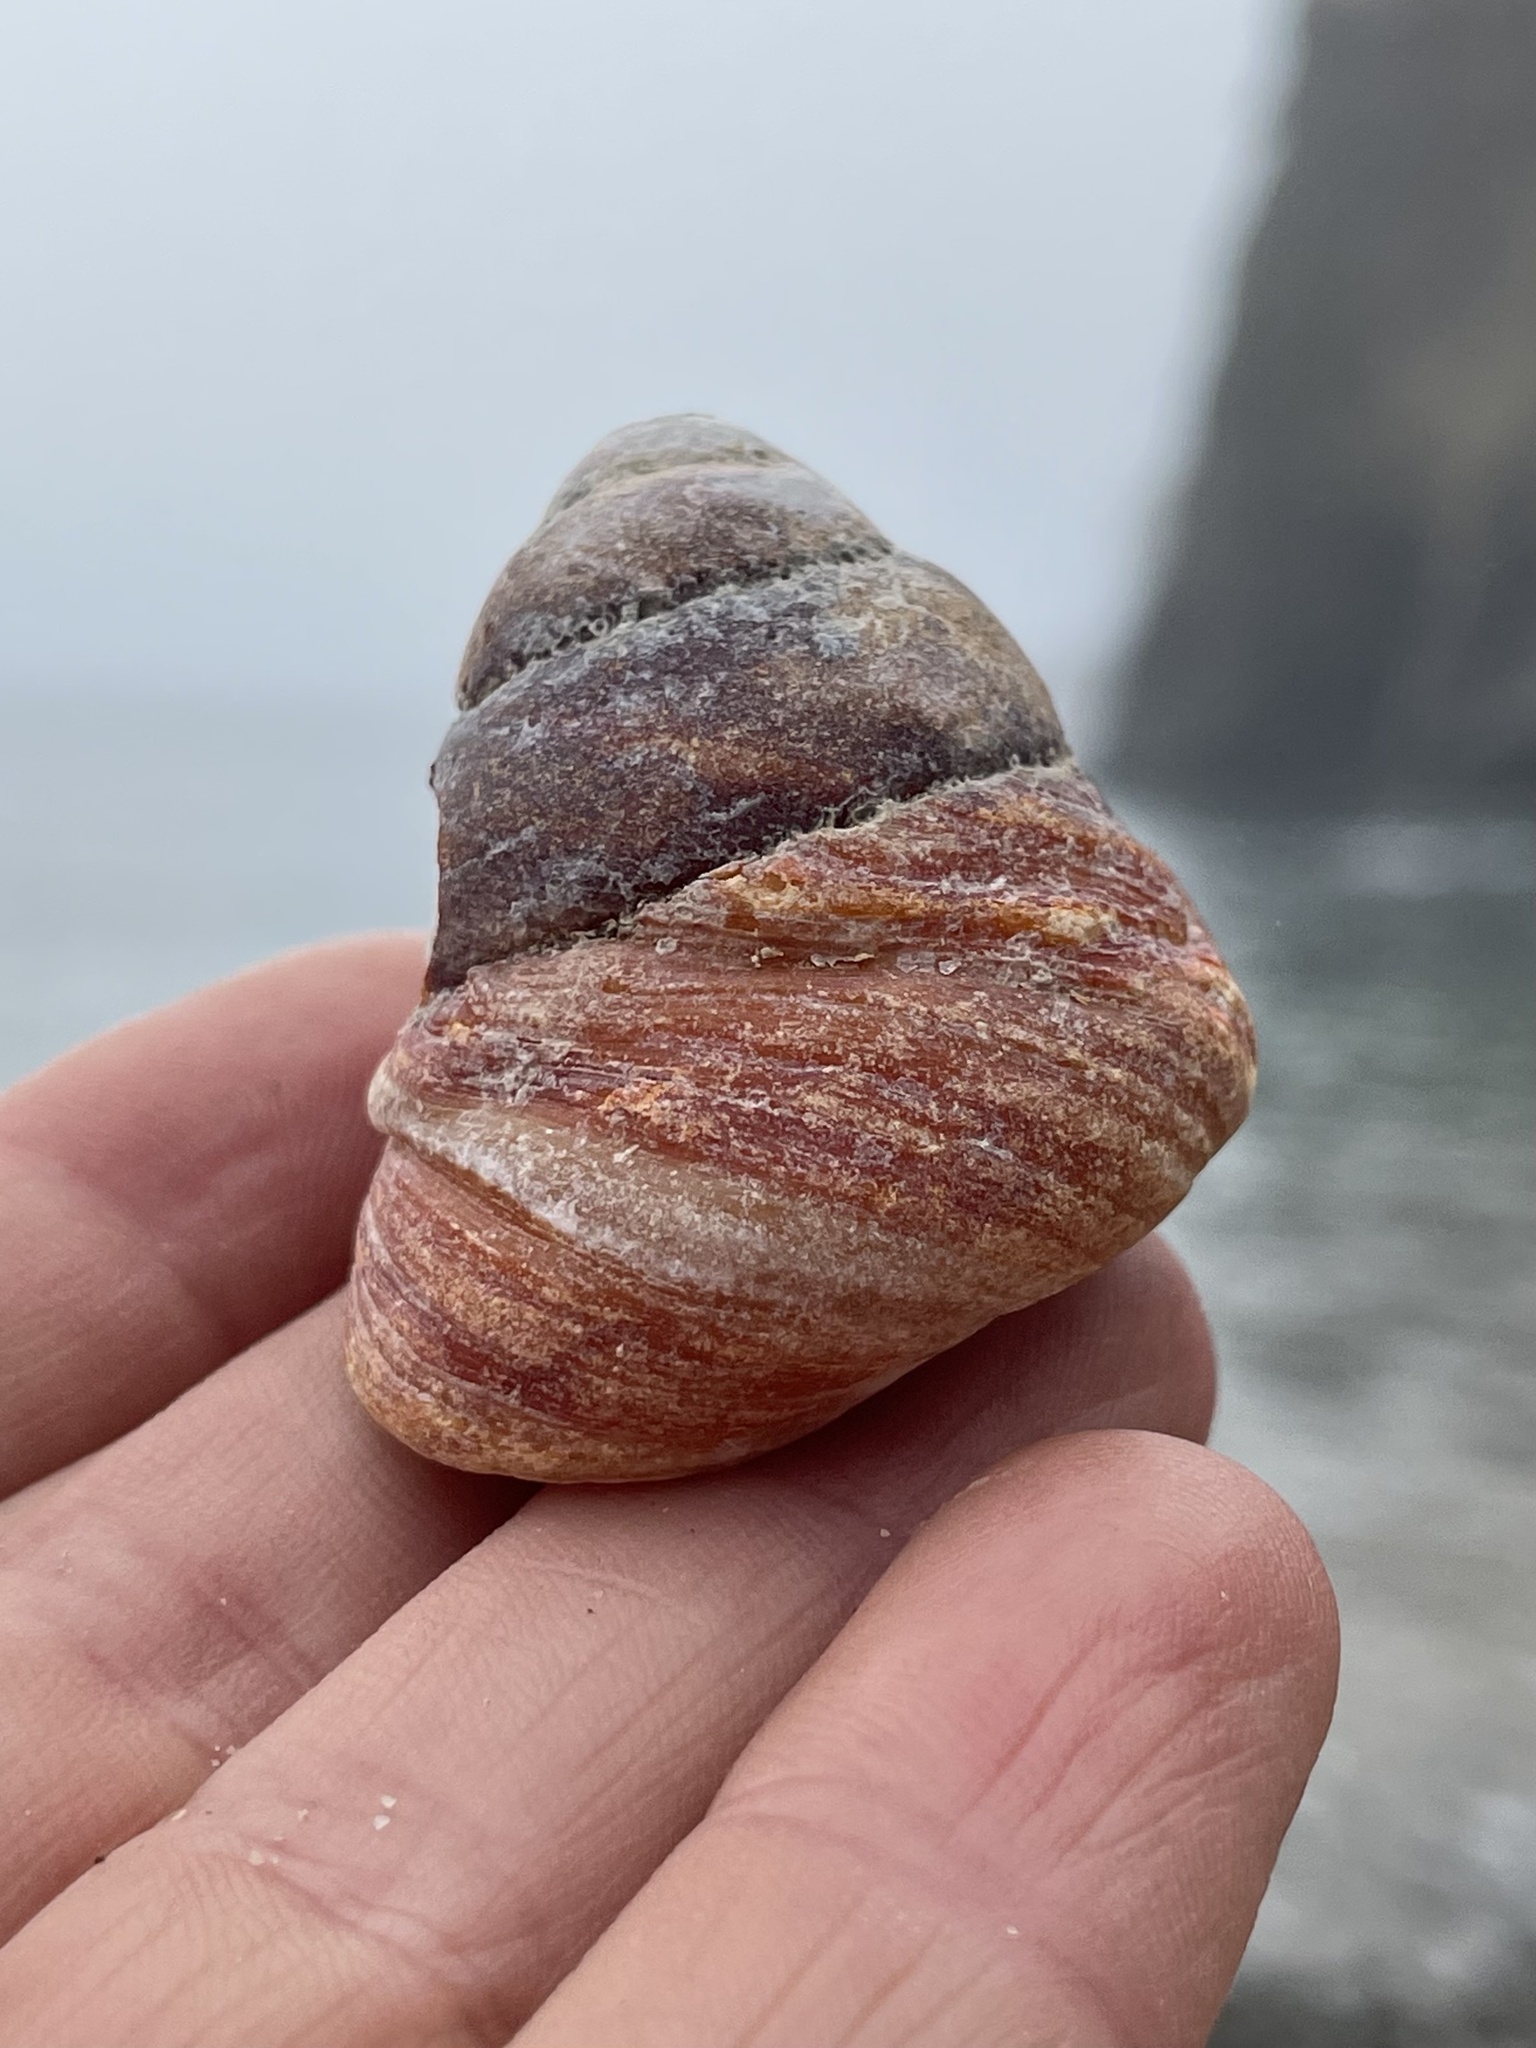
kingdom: Animalia
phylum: Mollusca
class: Gastropoda
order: Trochida
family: Tegulidae
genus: Tegula
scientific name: Tegula brunnea
